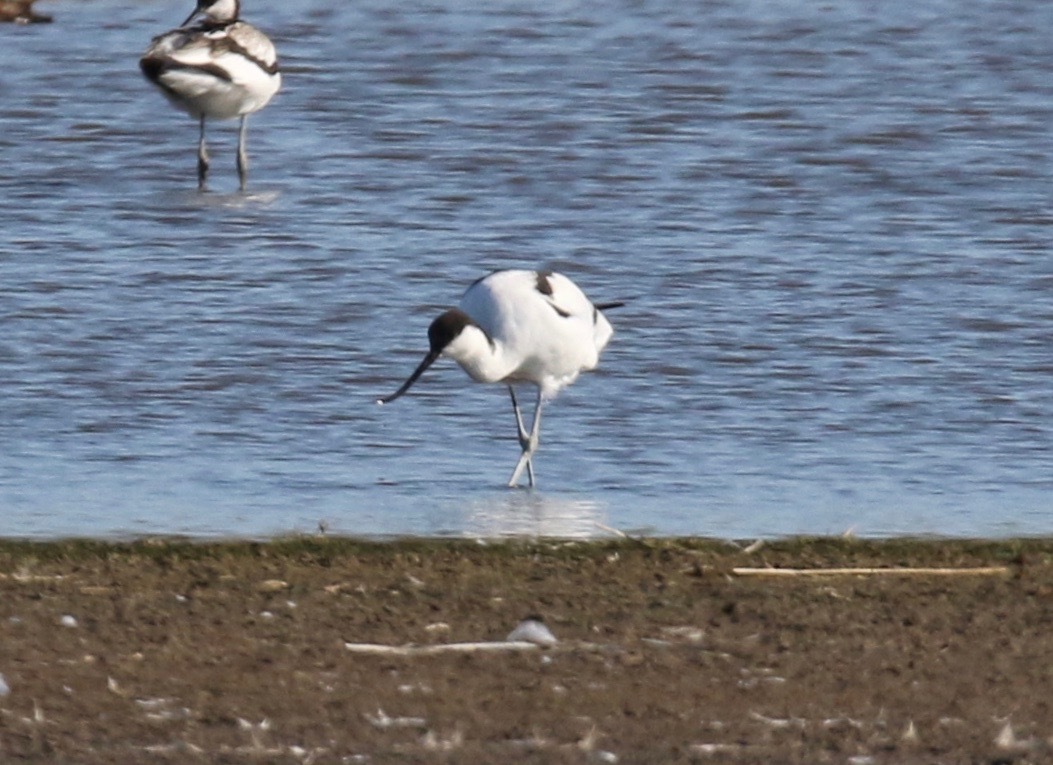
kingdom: Animalia
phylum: Chordata
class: Aves
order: Charadriiformes
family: Recurvirostridae
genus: Recurvirostra
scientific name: Recurvirostra avosetta
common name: Pied avocet
